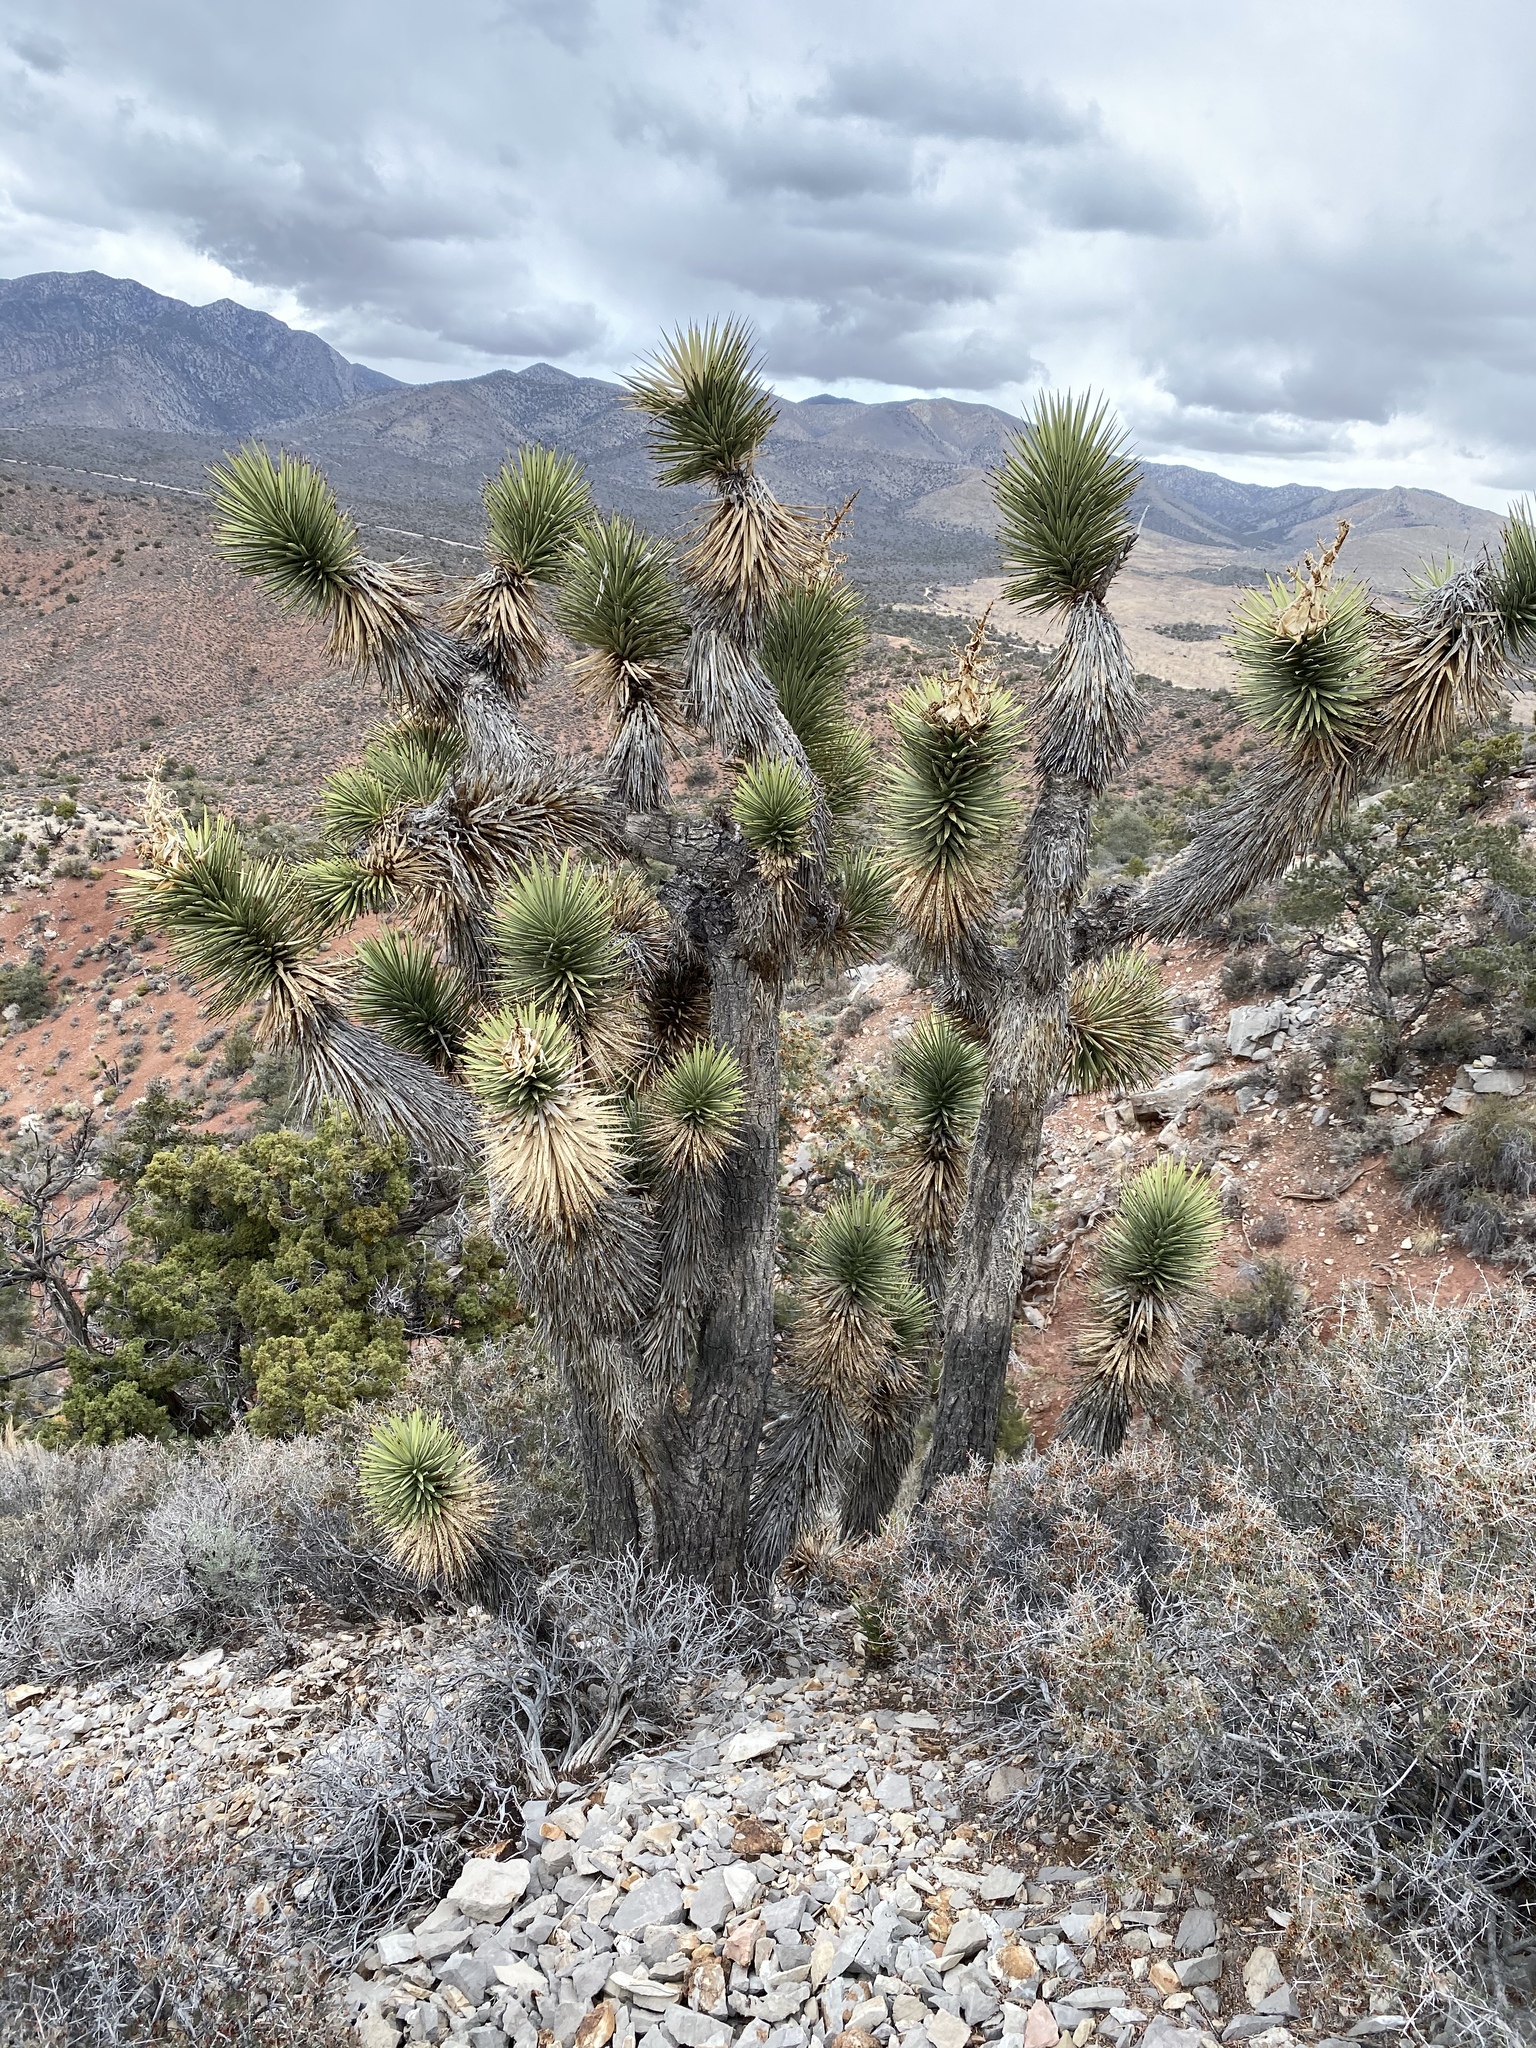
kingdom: Plantae
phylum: Tracheophyta
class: Liliopsida
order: Asparagales
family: Asparagaceae
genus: Yucca
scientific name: Yucca brevifolia
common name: Joshua tree
